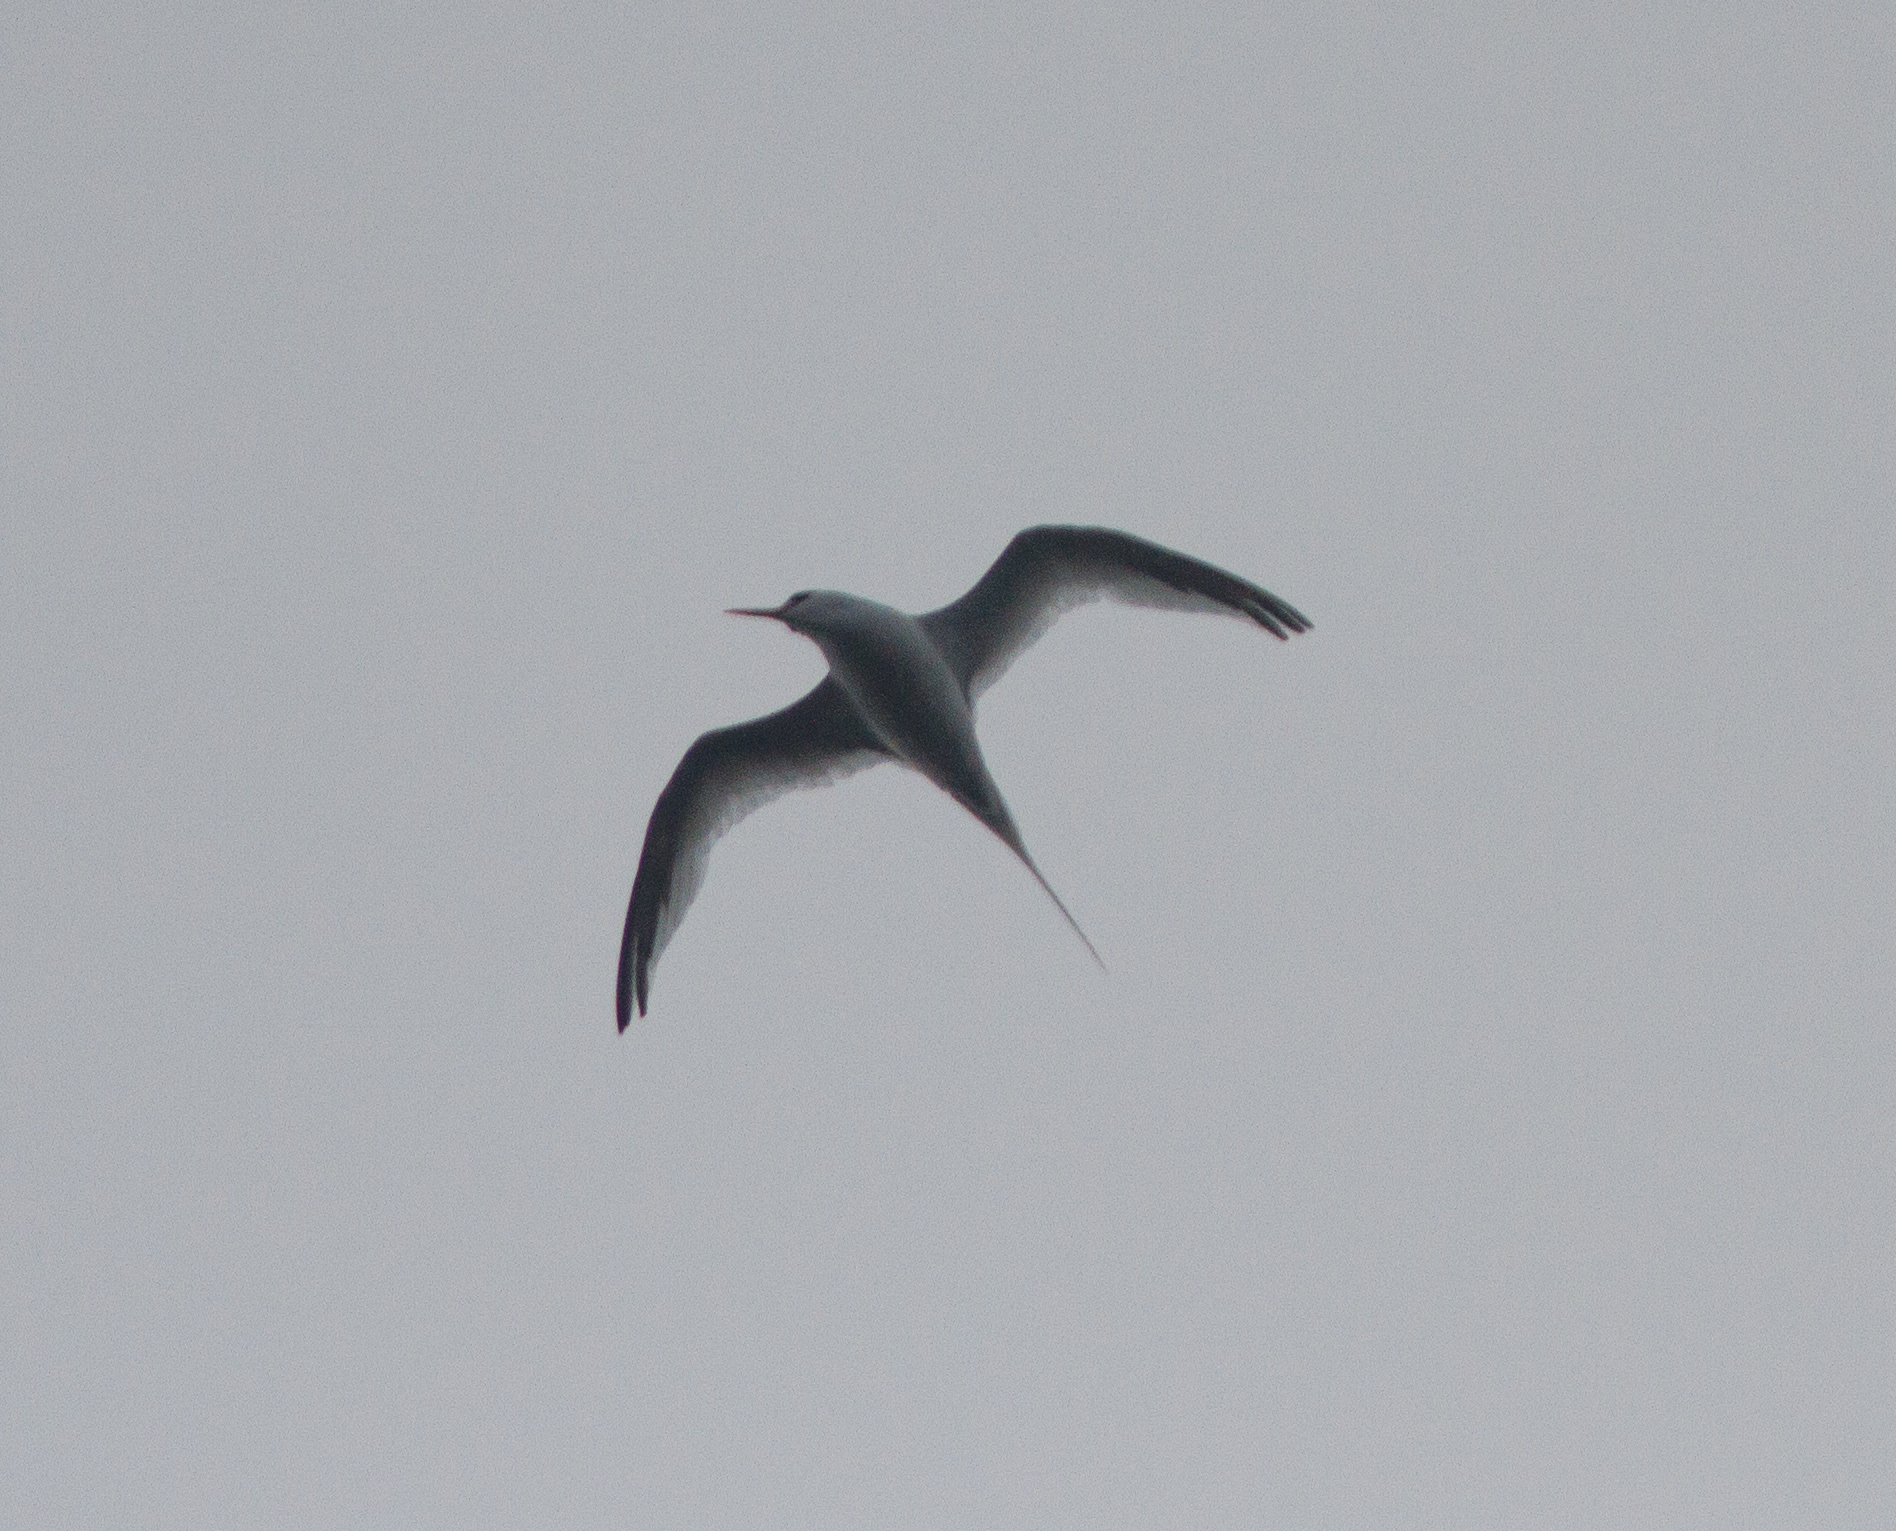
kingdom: Animalia
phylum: Chordata
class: Aves
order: Phaethontiformes
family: Phaethontidae
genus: Phaethon
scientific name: Phaethon aethereus
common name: Red-billed tropicbird
